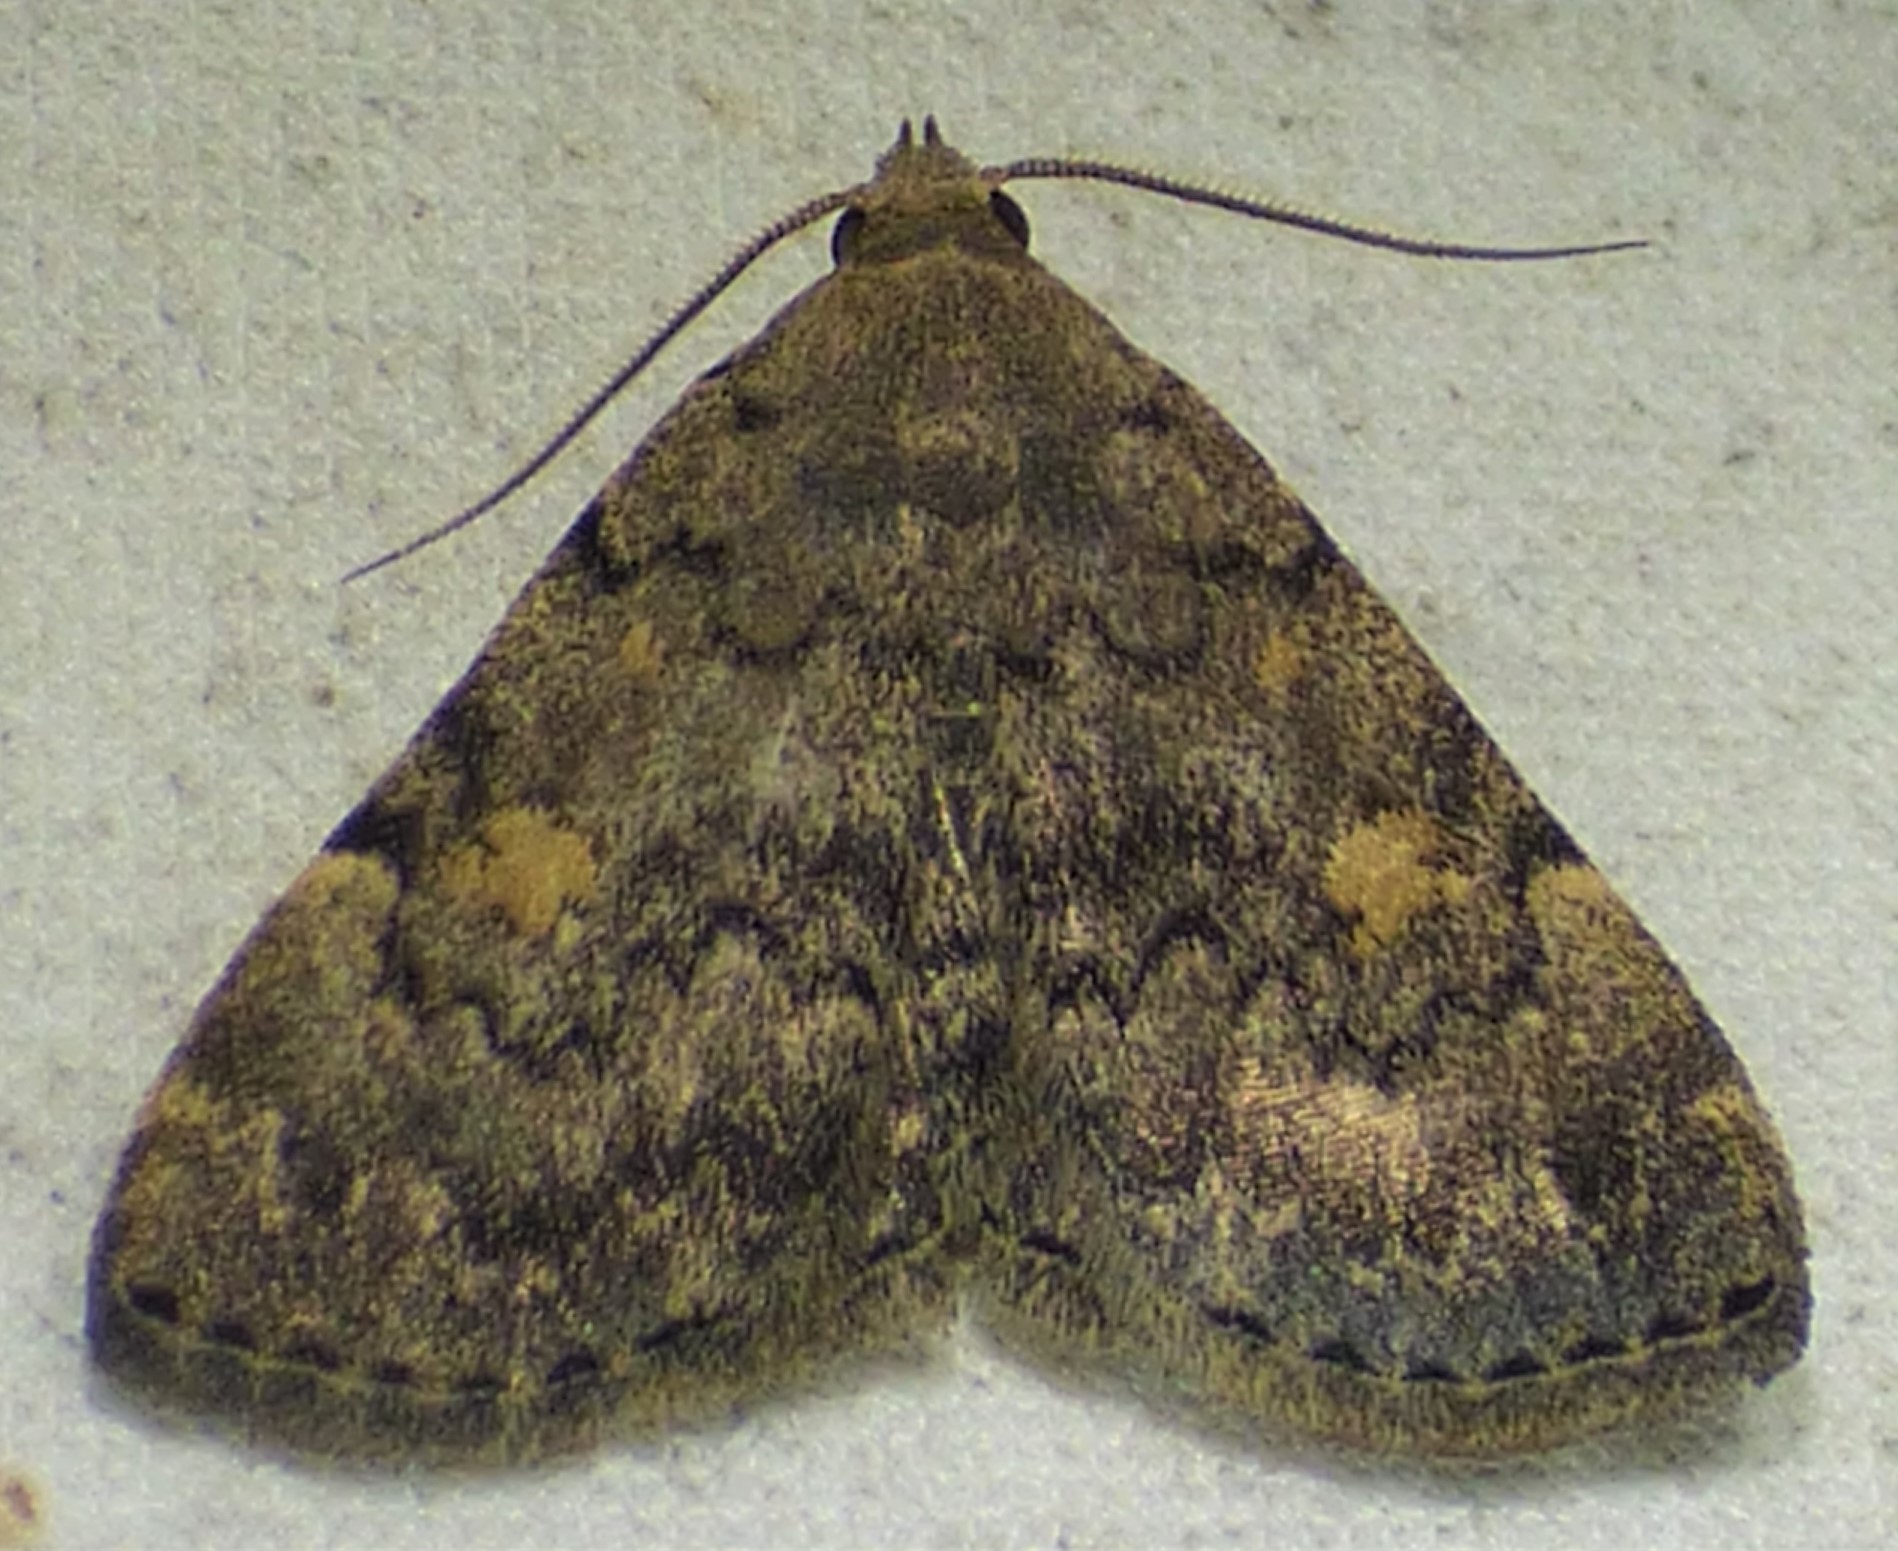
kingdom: Animalia
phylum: Arthropoda
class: Insecta
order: Lepidoptera
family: Erebidae
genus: Idia
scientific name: Idia aemula
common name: Common idia moth
